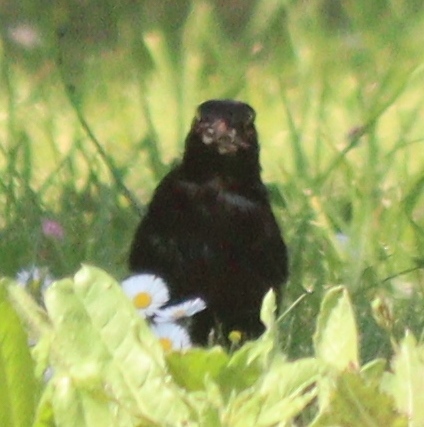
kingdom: Animalia
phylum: Chordata
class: Aves
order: Passeriformes
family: Turdidae
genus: Turdus
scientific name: Turdus merula
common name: Common blackbird
